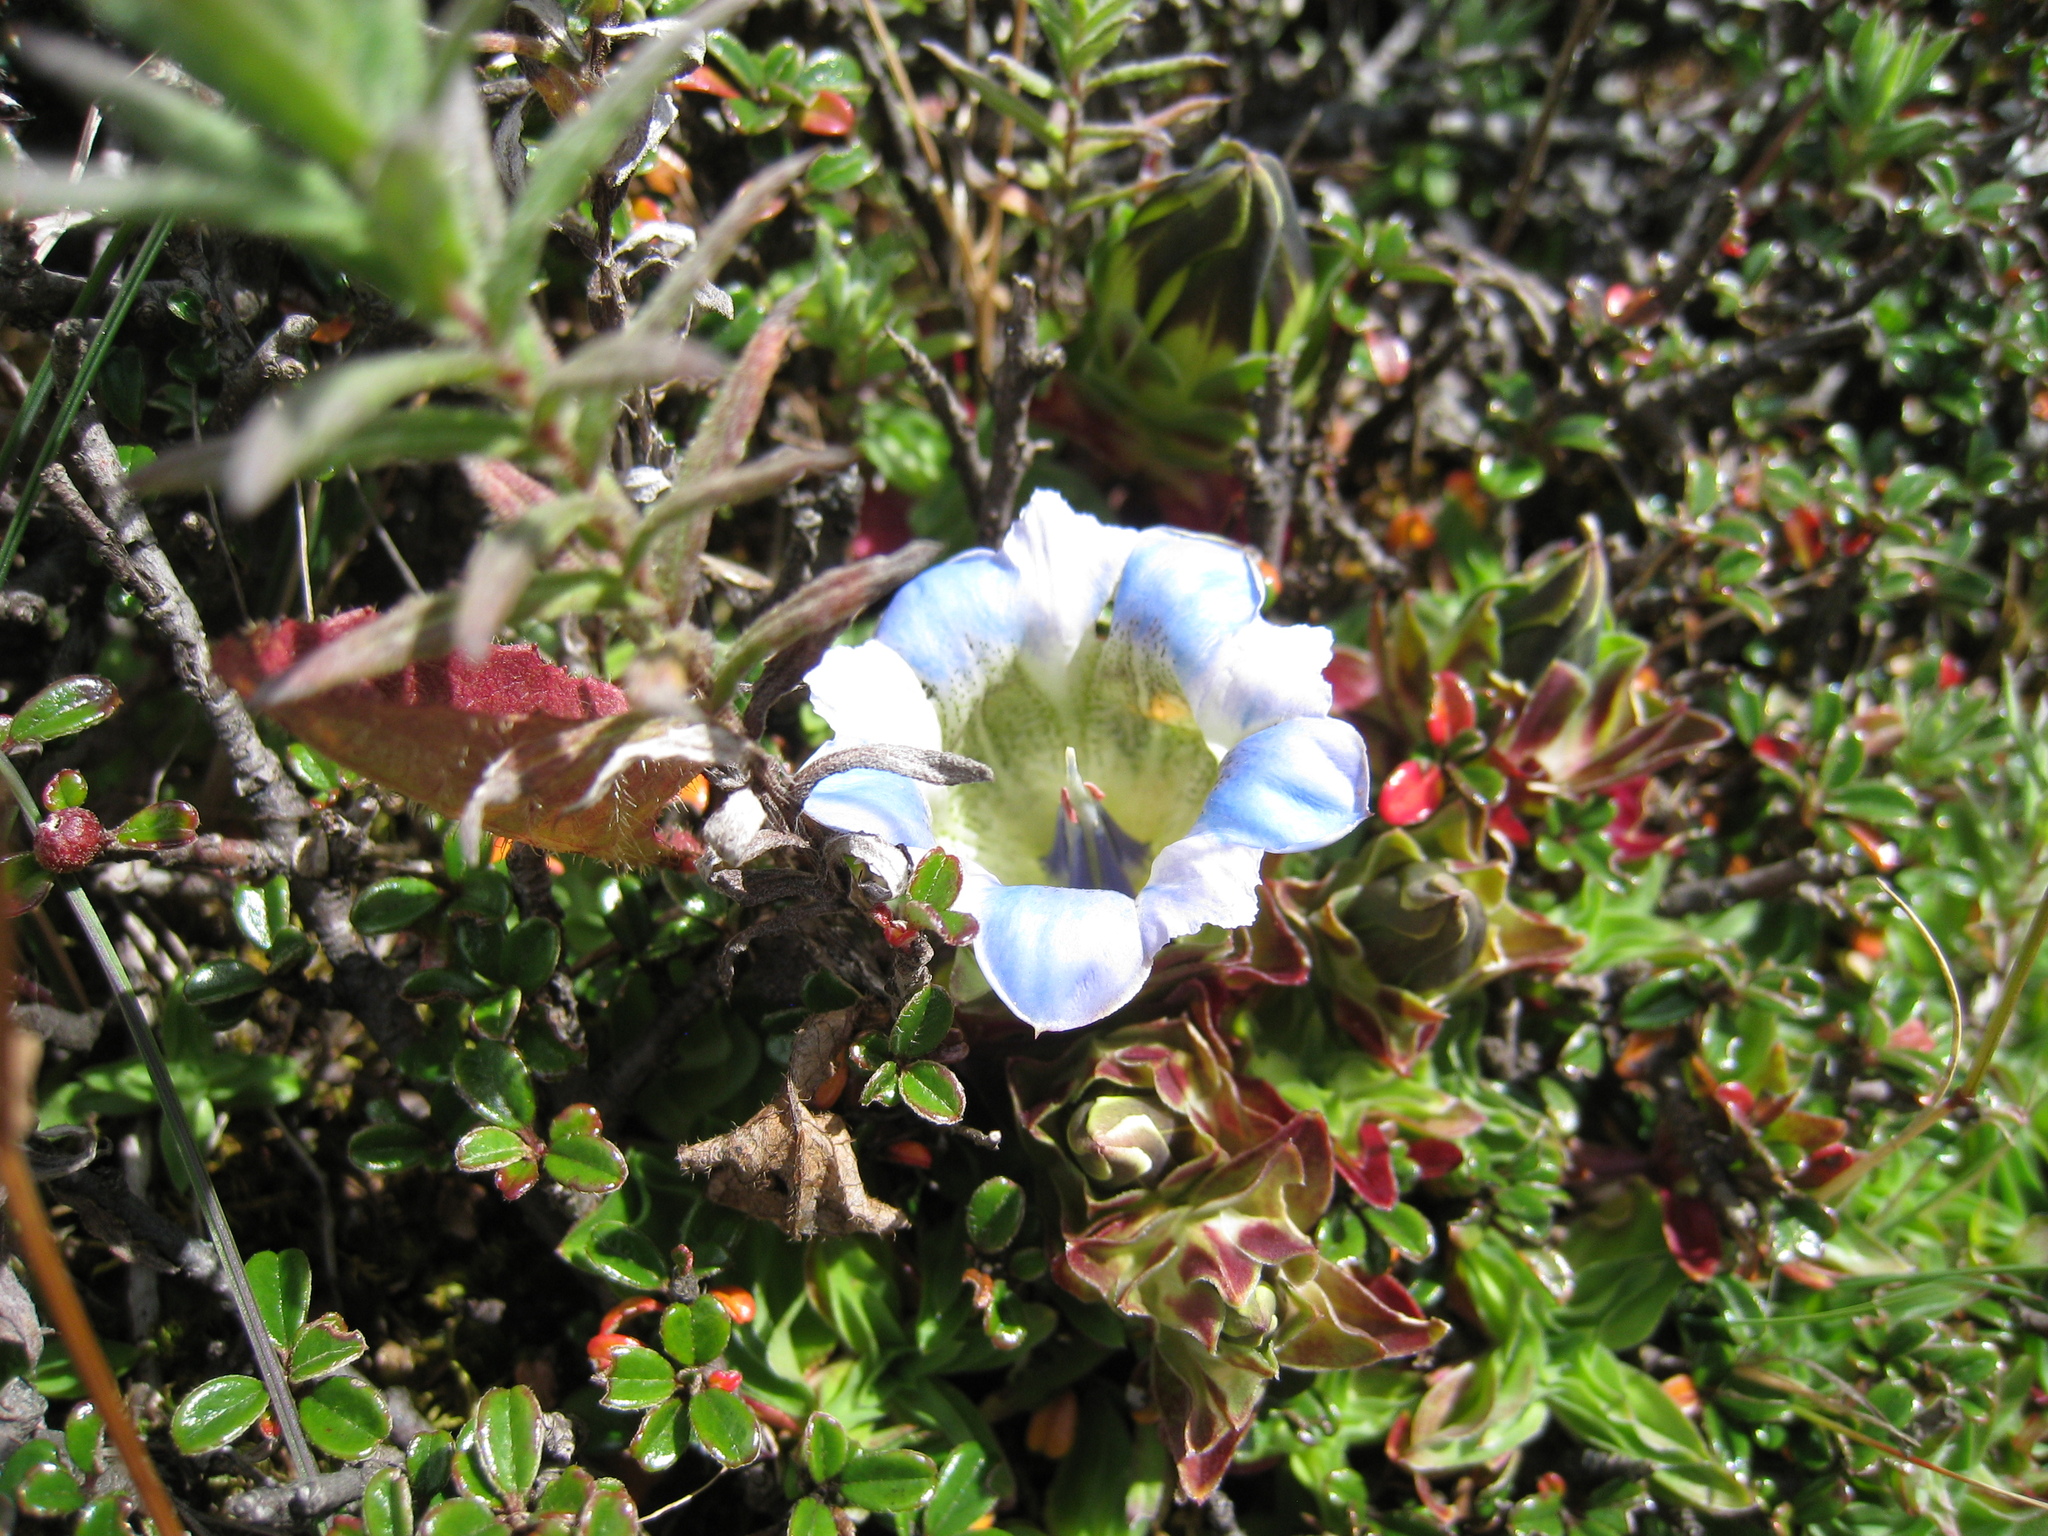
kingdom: Plantae
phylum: Tracheophyta
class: Magnoliopsida
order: Gentianales
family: Gentianaceae
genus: Gentiana
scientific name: Gentiana depressa
